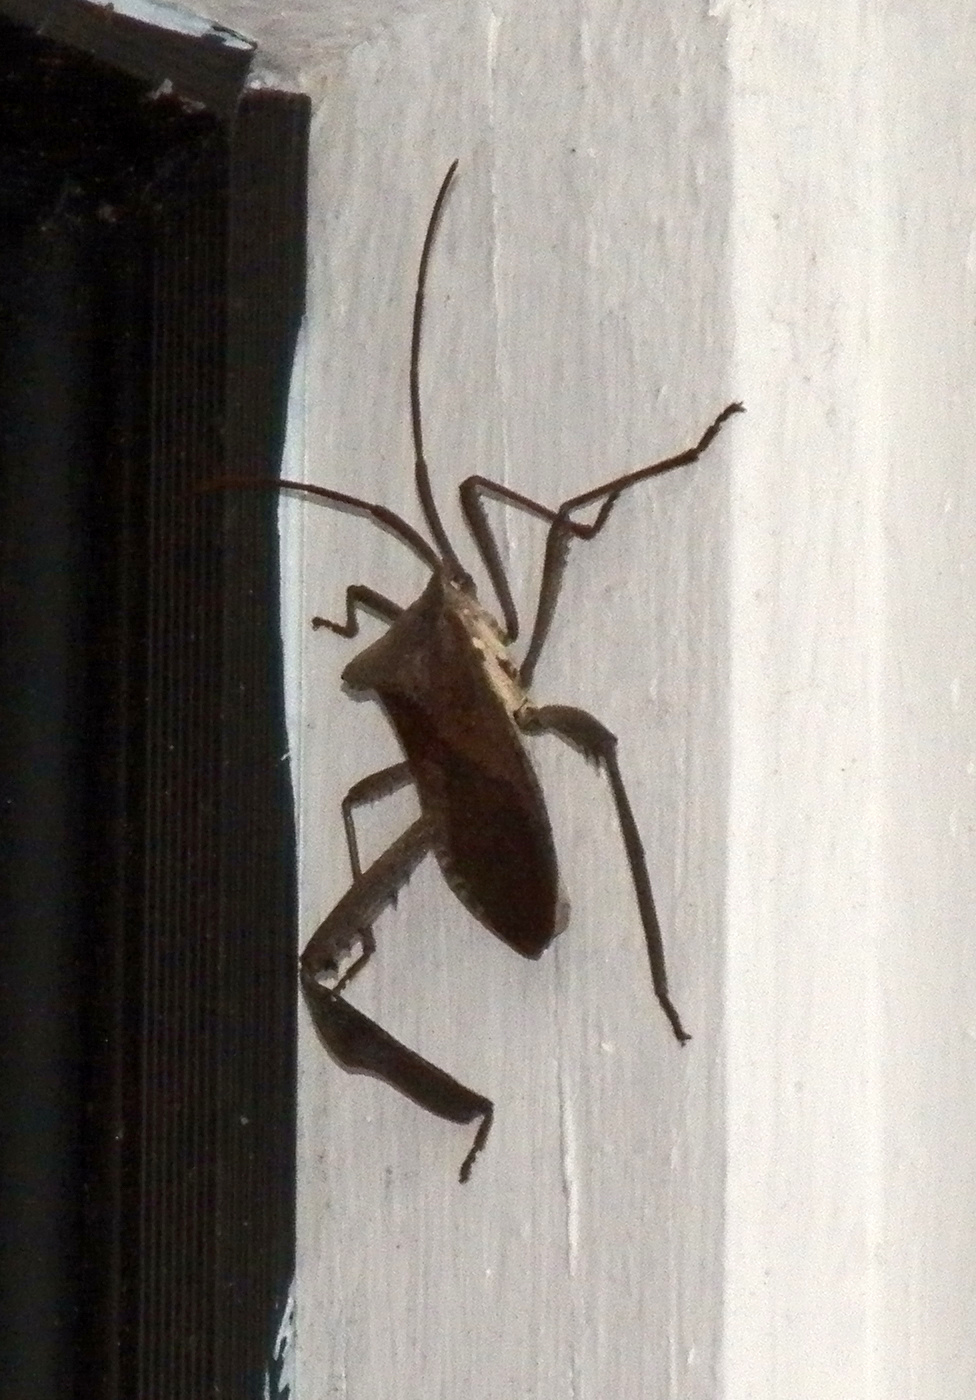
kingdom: Animalia
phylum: Arthropoda
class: Insecta
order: Hemiptera
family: Coreidae
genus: Acanthocephala
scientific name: Acanthocephala declivis
